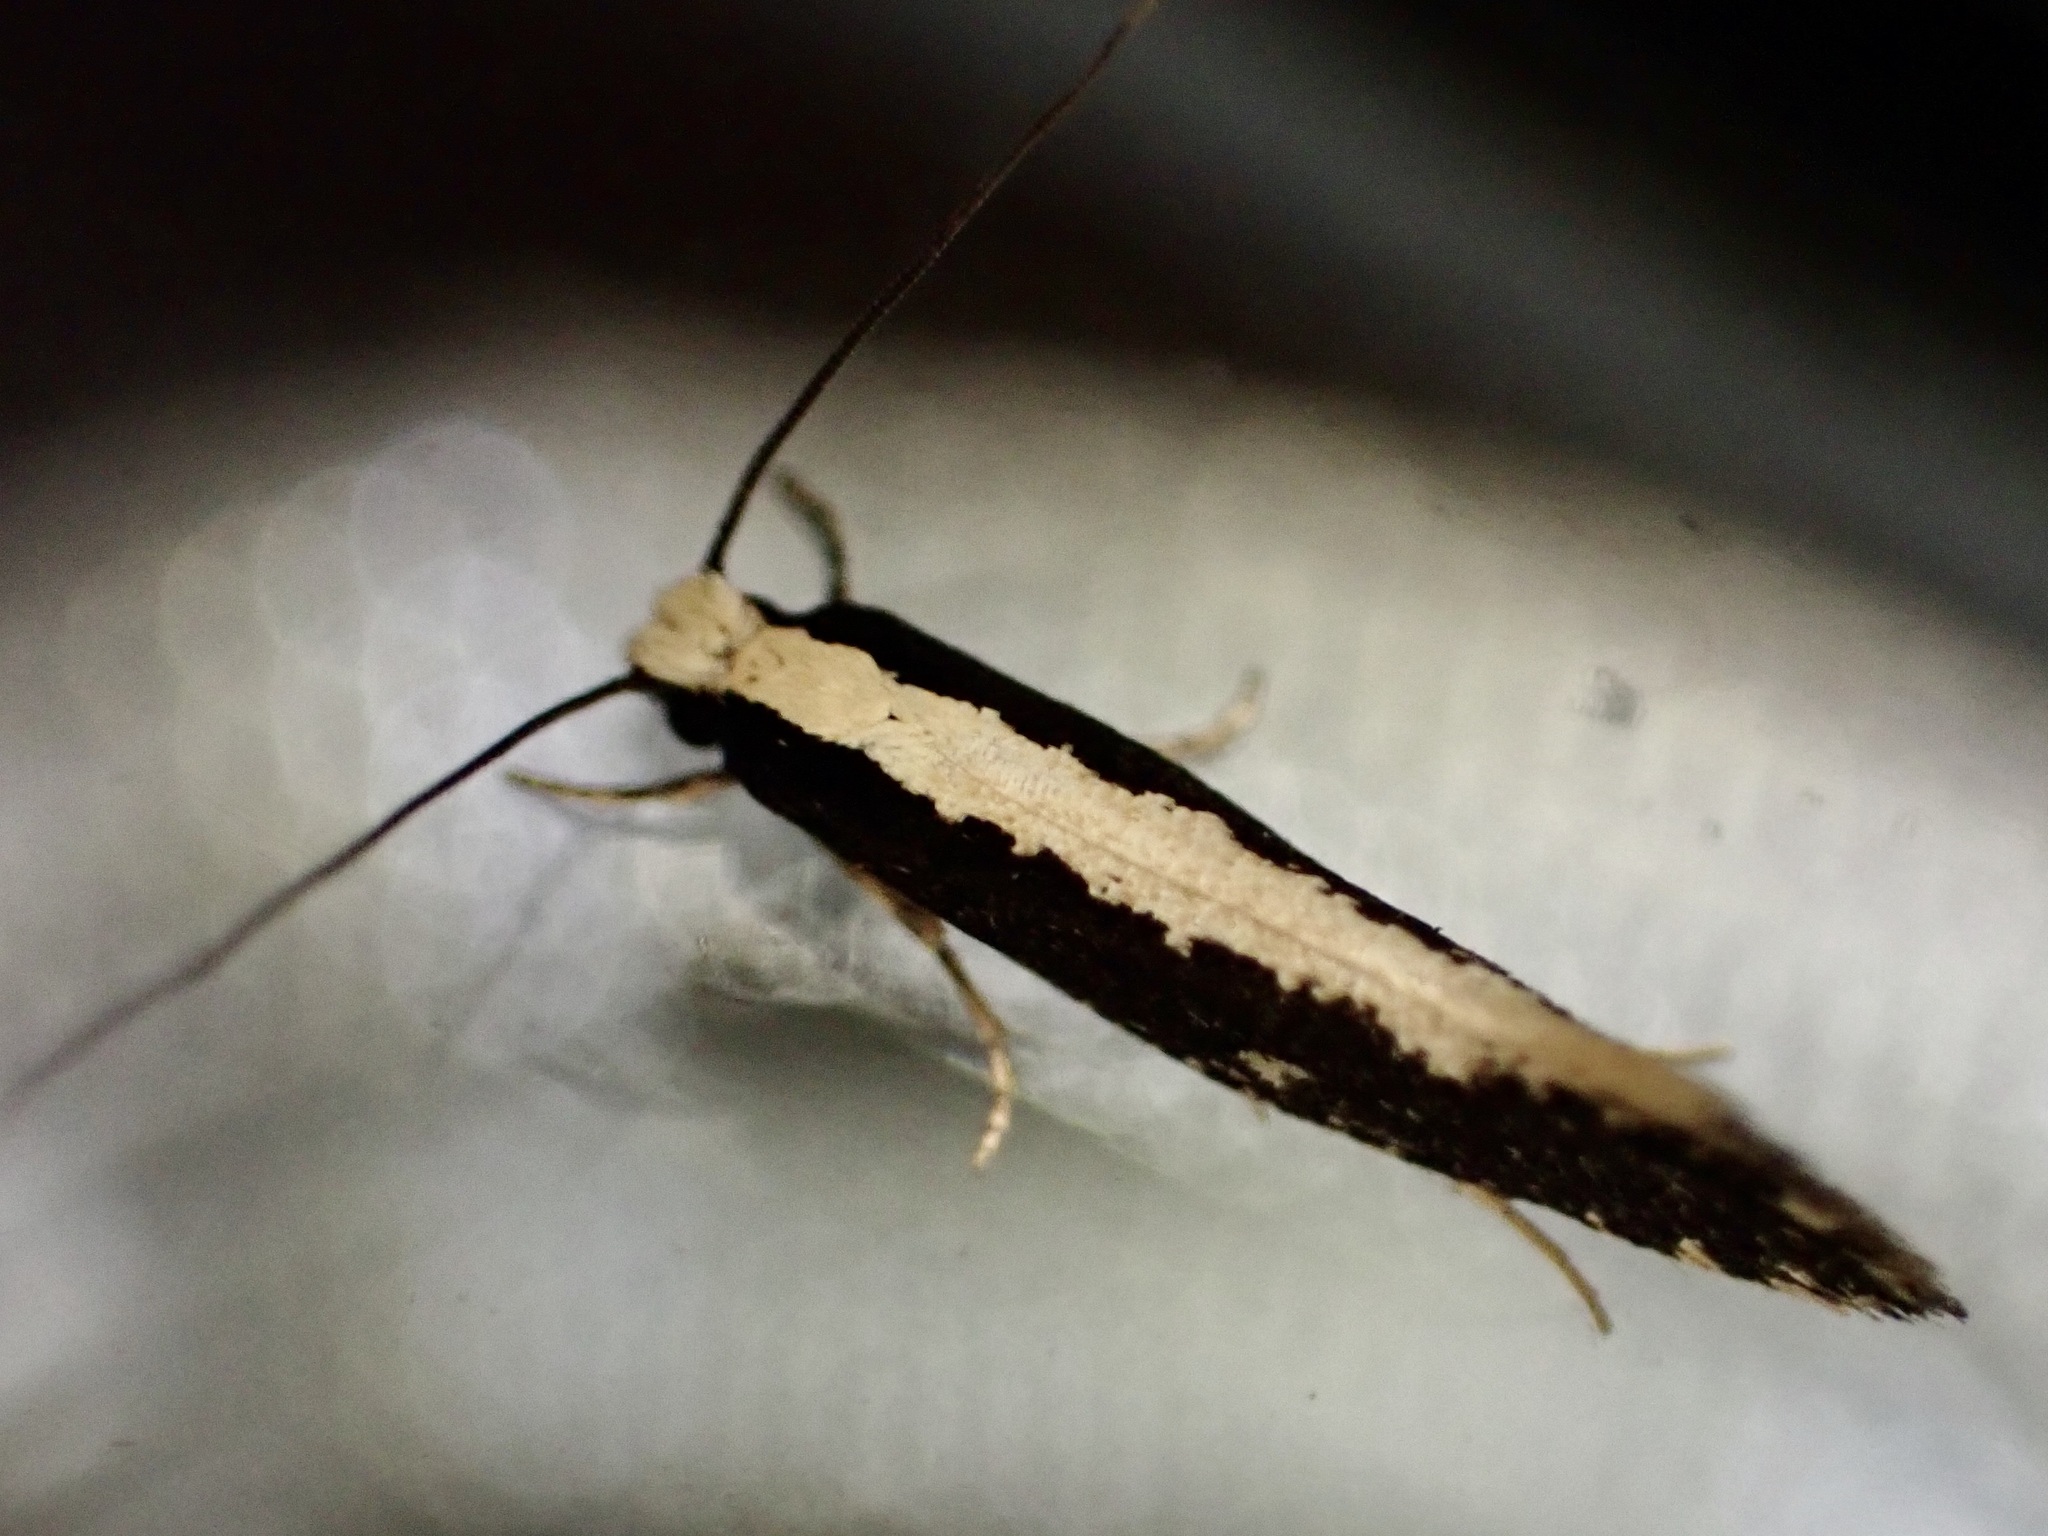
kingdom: Animalia
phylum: Arthropoda
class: Insecta
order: Lepidoptera
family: Tineidae
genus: Monopis
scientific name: Monopis ethelella
